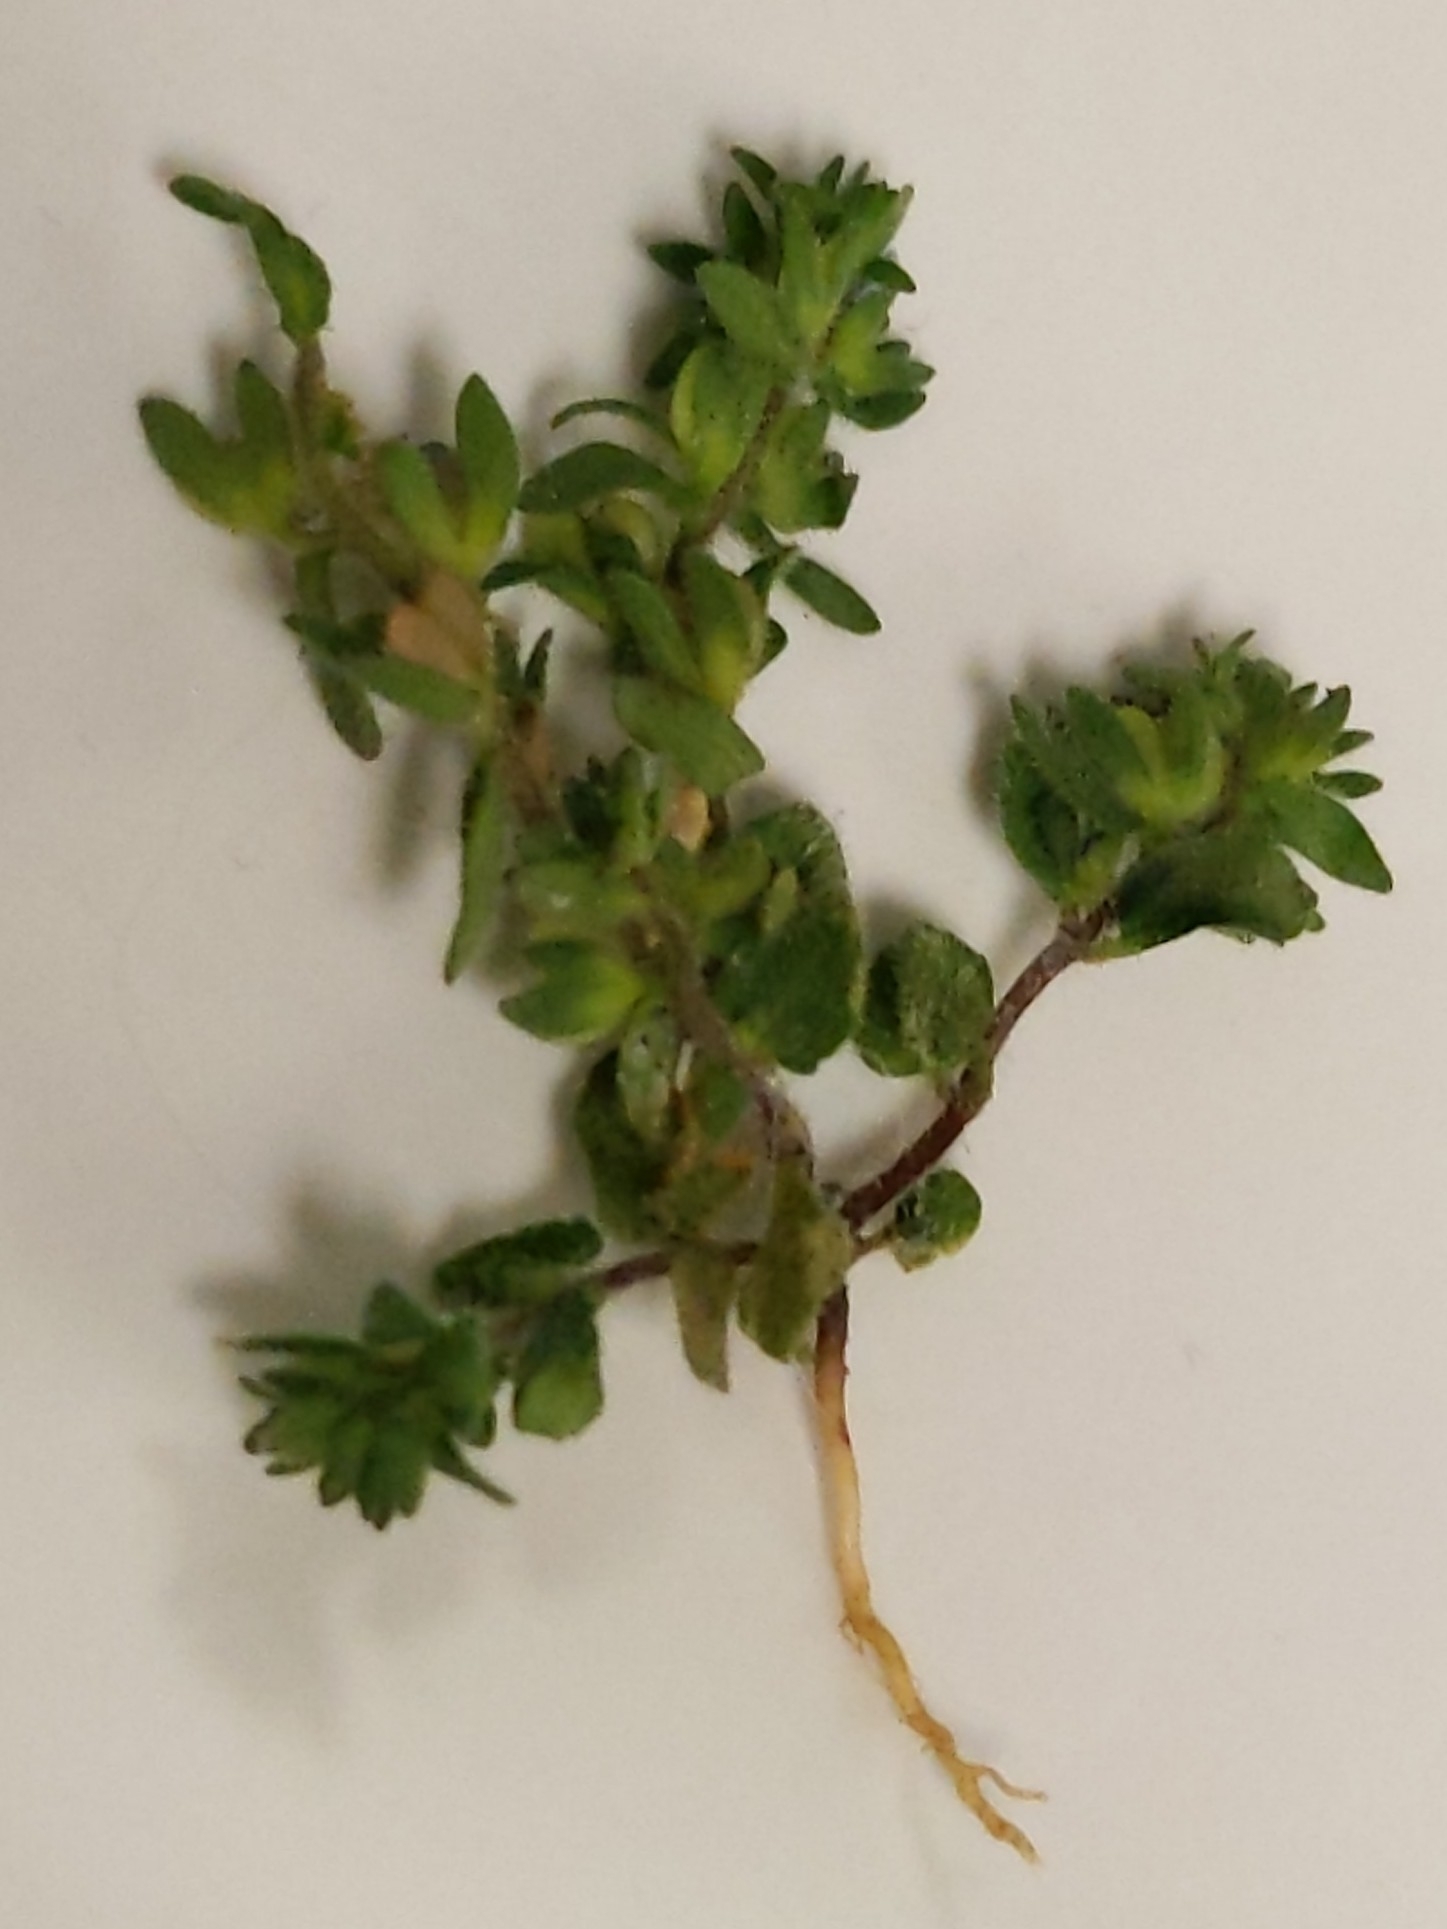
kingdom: Plantae
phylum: Tracheophyta
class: Magnoliopsida
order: Lamiales
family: Plantaginaceae
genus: Veronica
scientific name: Veronica arvensis
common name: Corn speedwell
